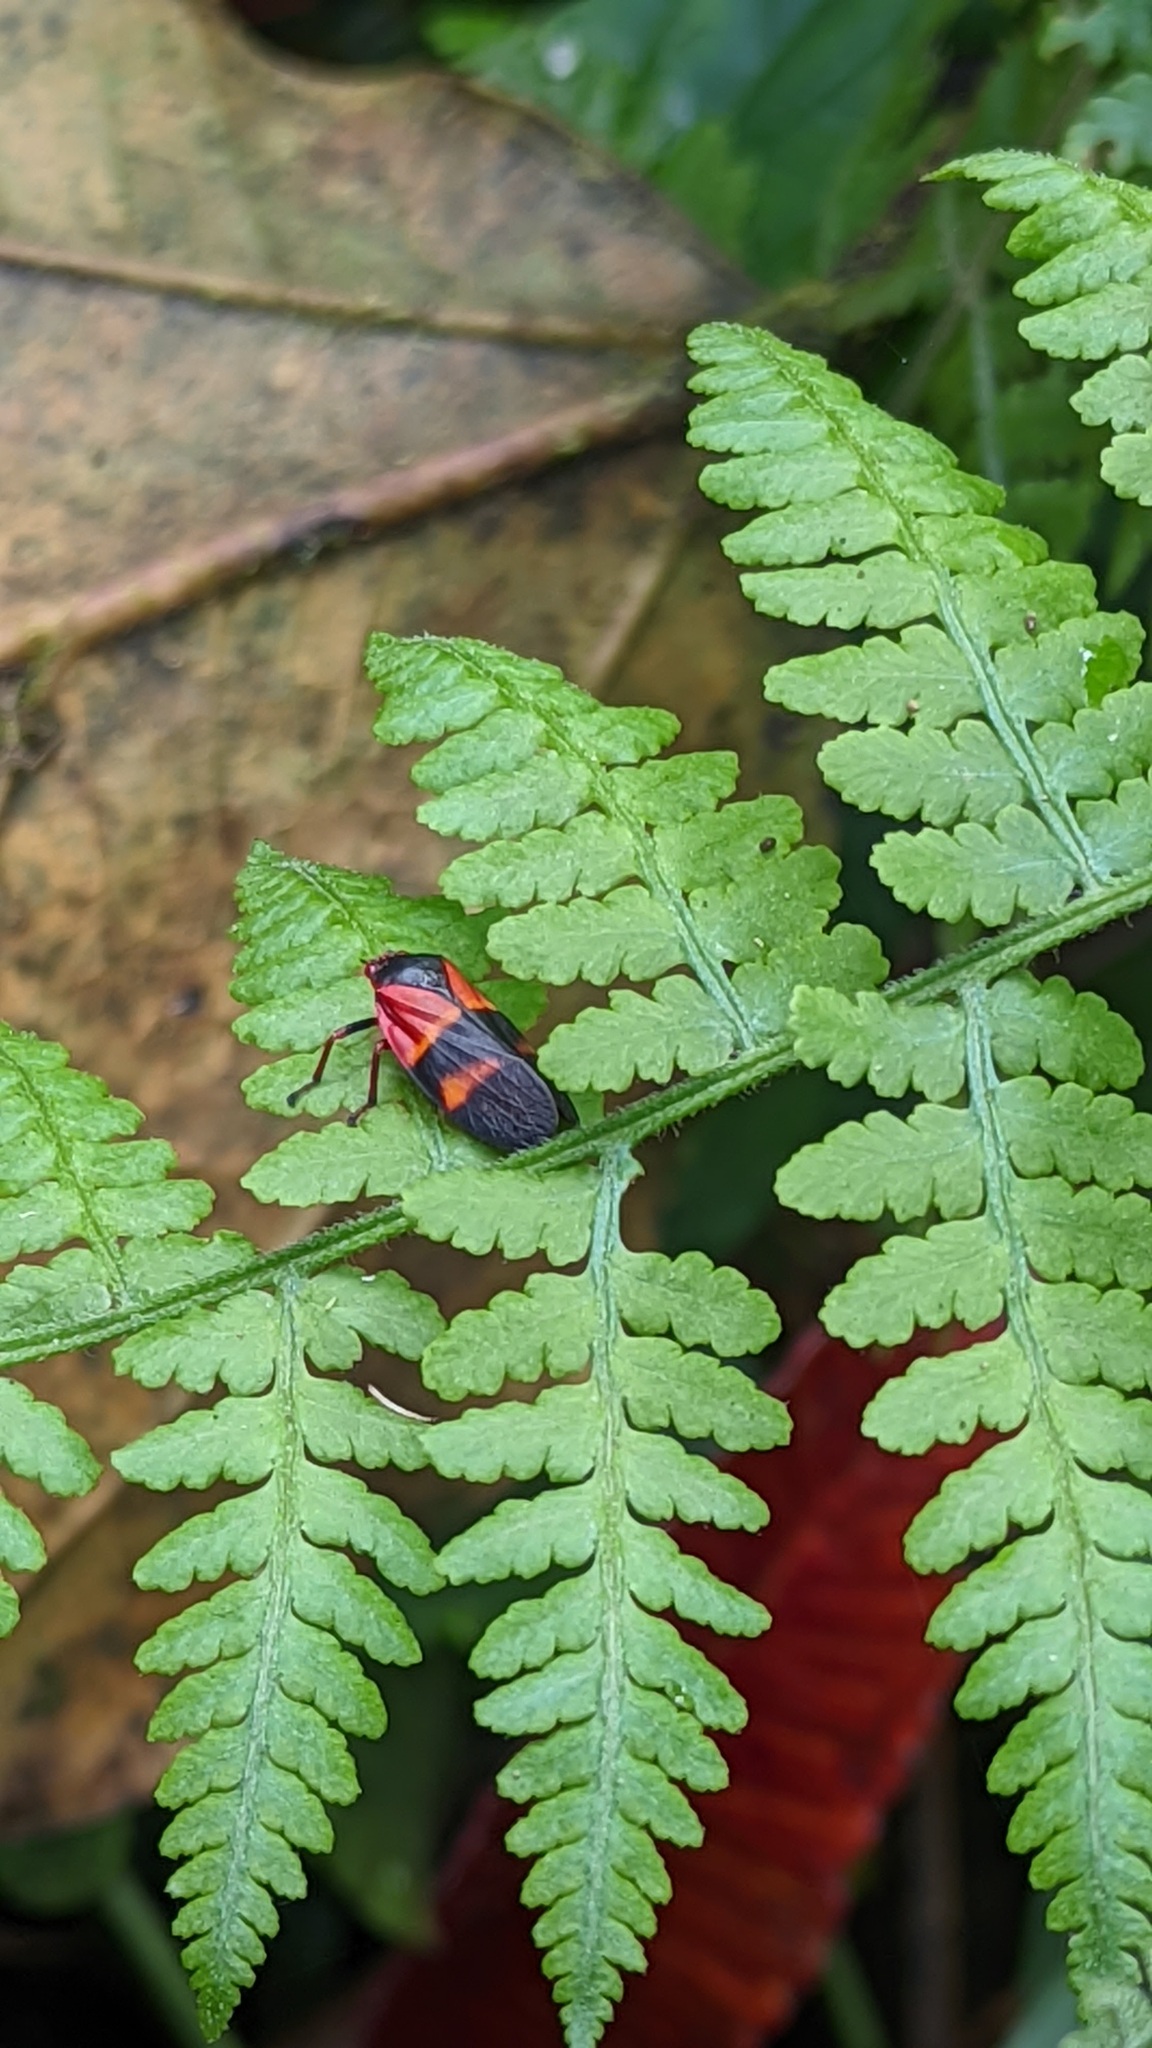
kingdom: Animalia
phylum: Arthropoda
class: Insecta
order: Hemiptera
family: Cercopidae
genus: Huaina
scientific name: Huaina inca
